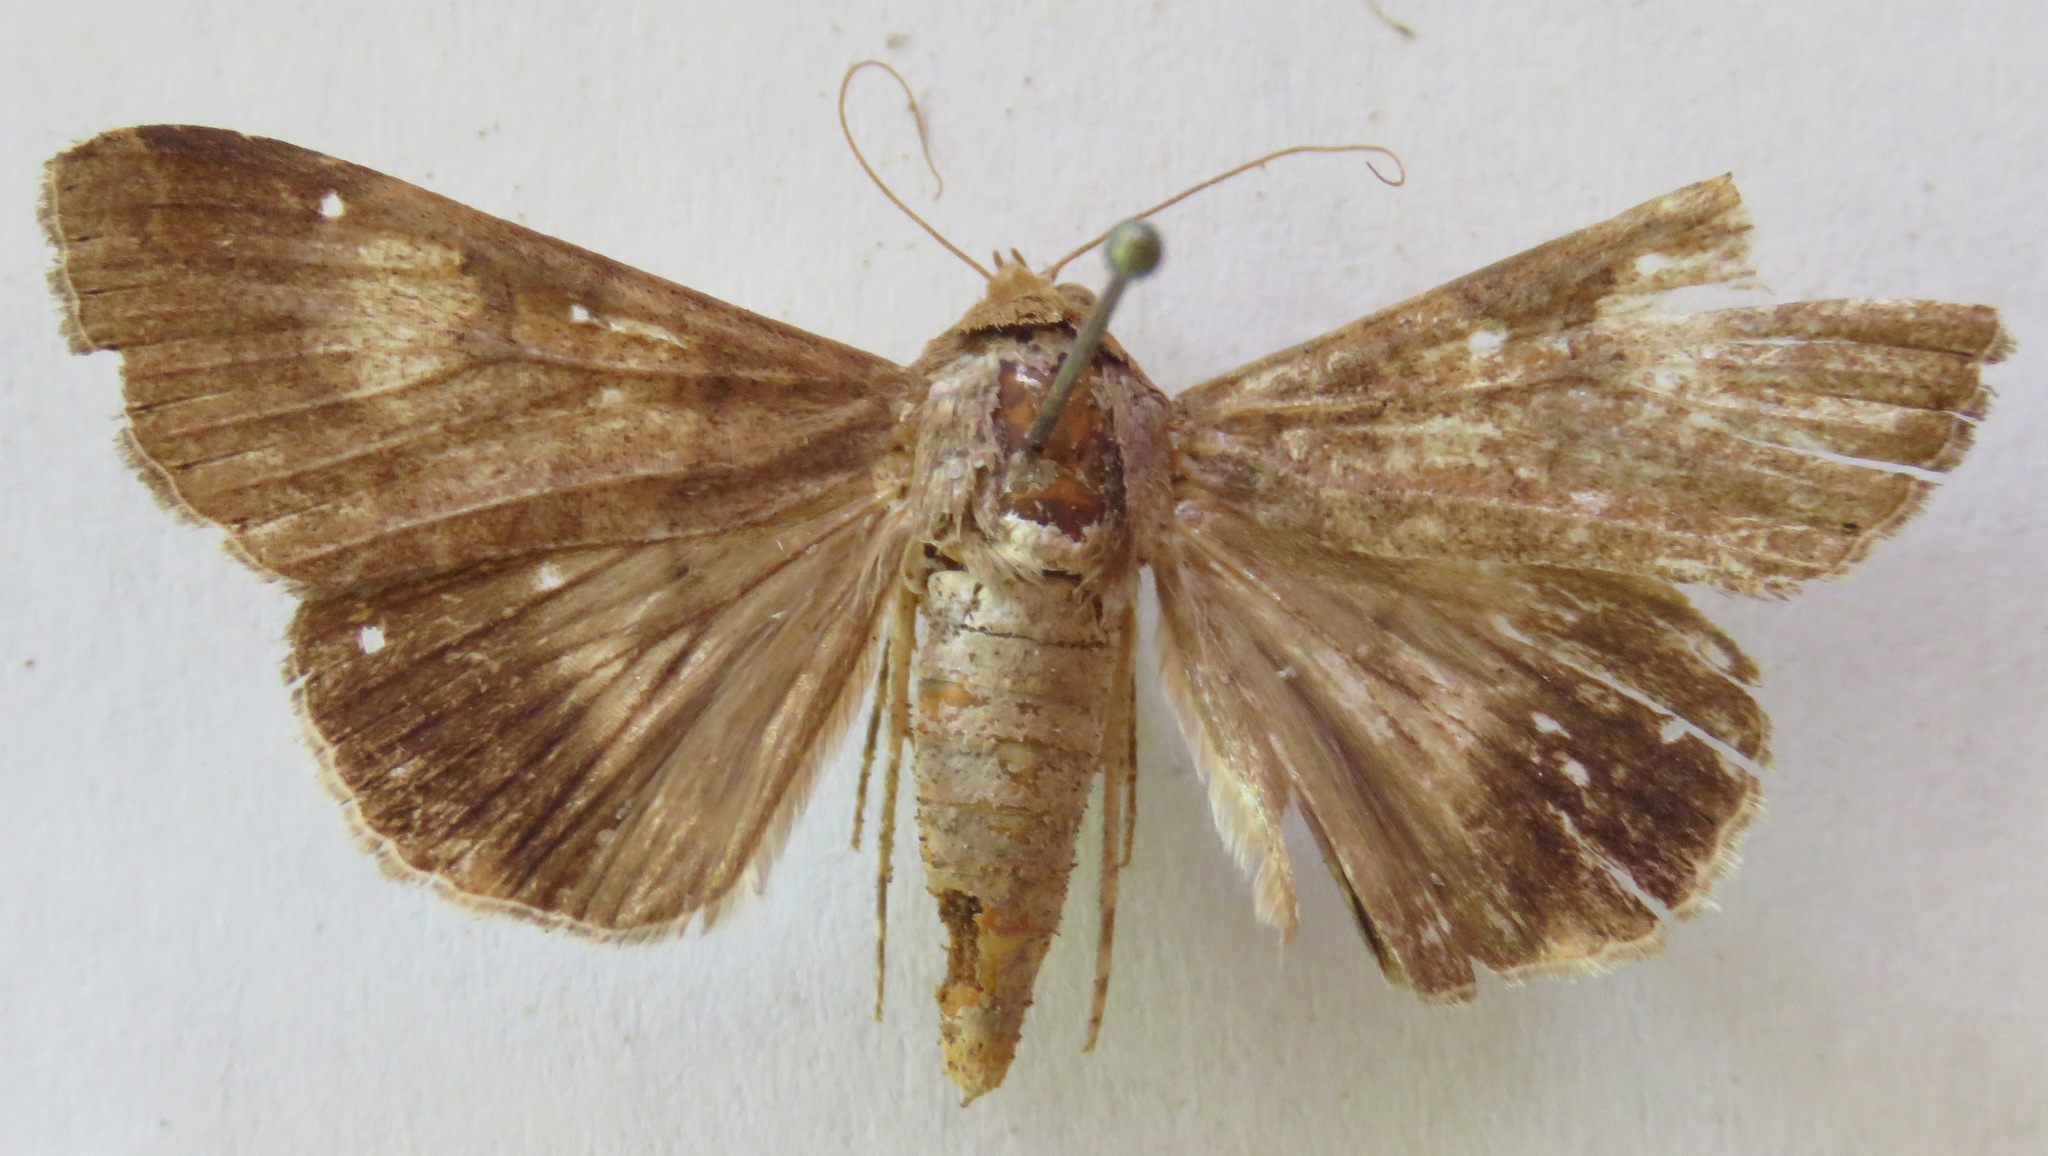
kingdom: Animalia
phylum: Arthropoda
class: Insecta
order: Lepidoptera
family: Erebidae
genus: Melipotis
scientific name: Melipotis januaris
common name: January melipotis moth
